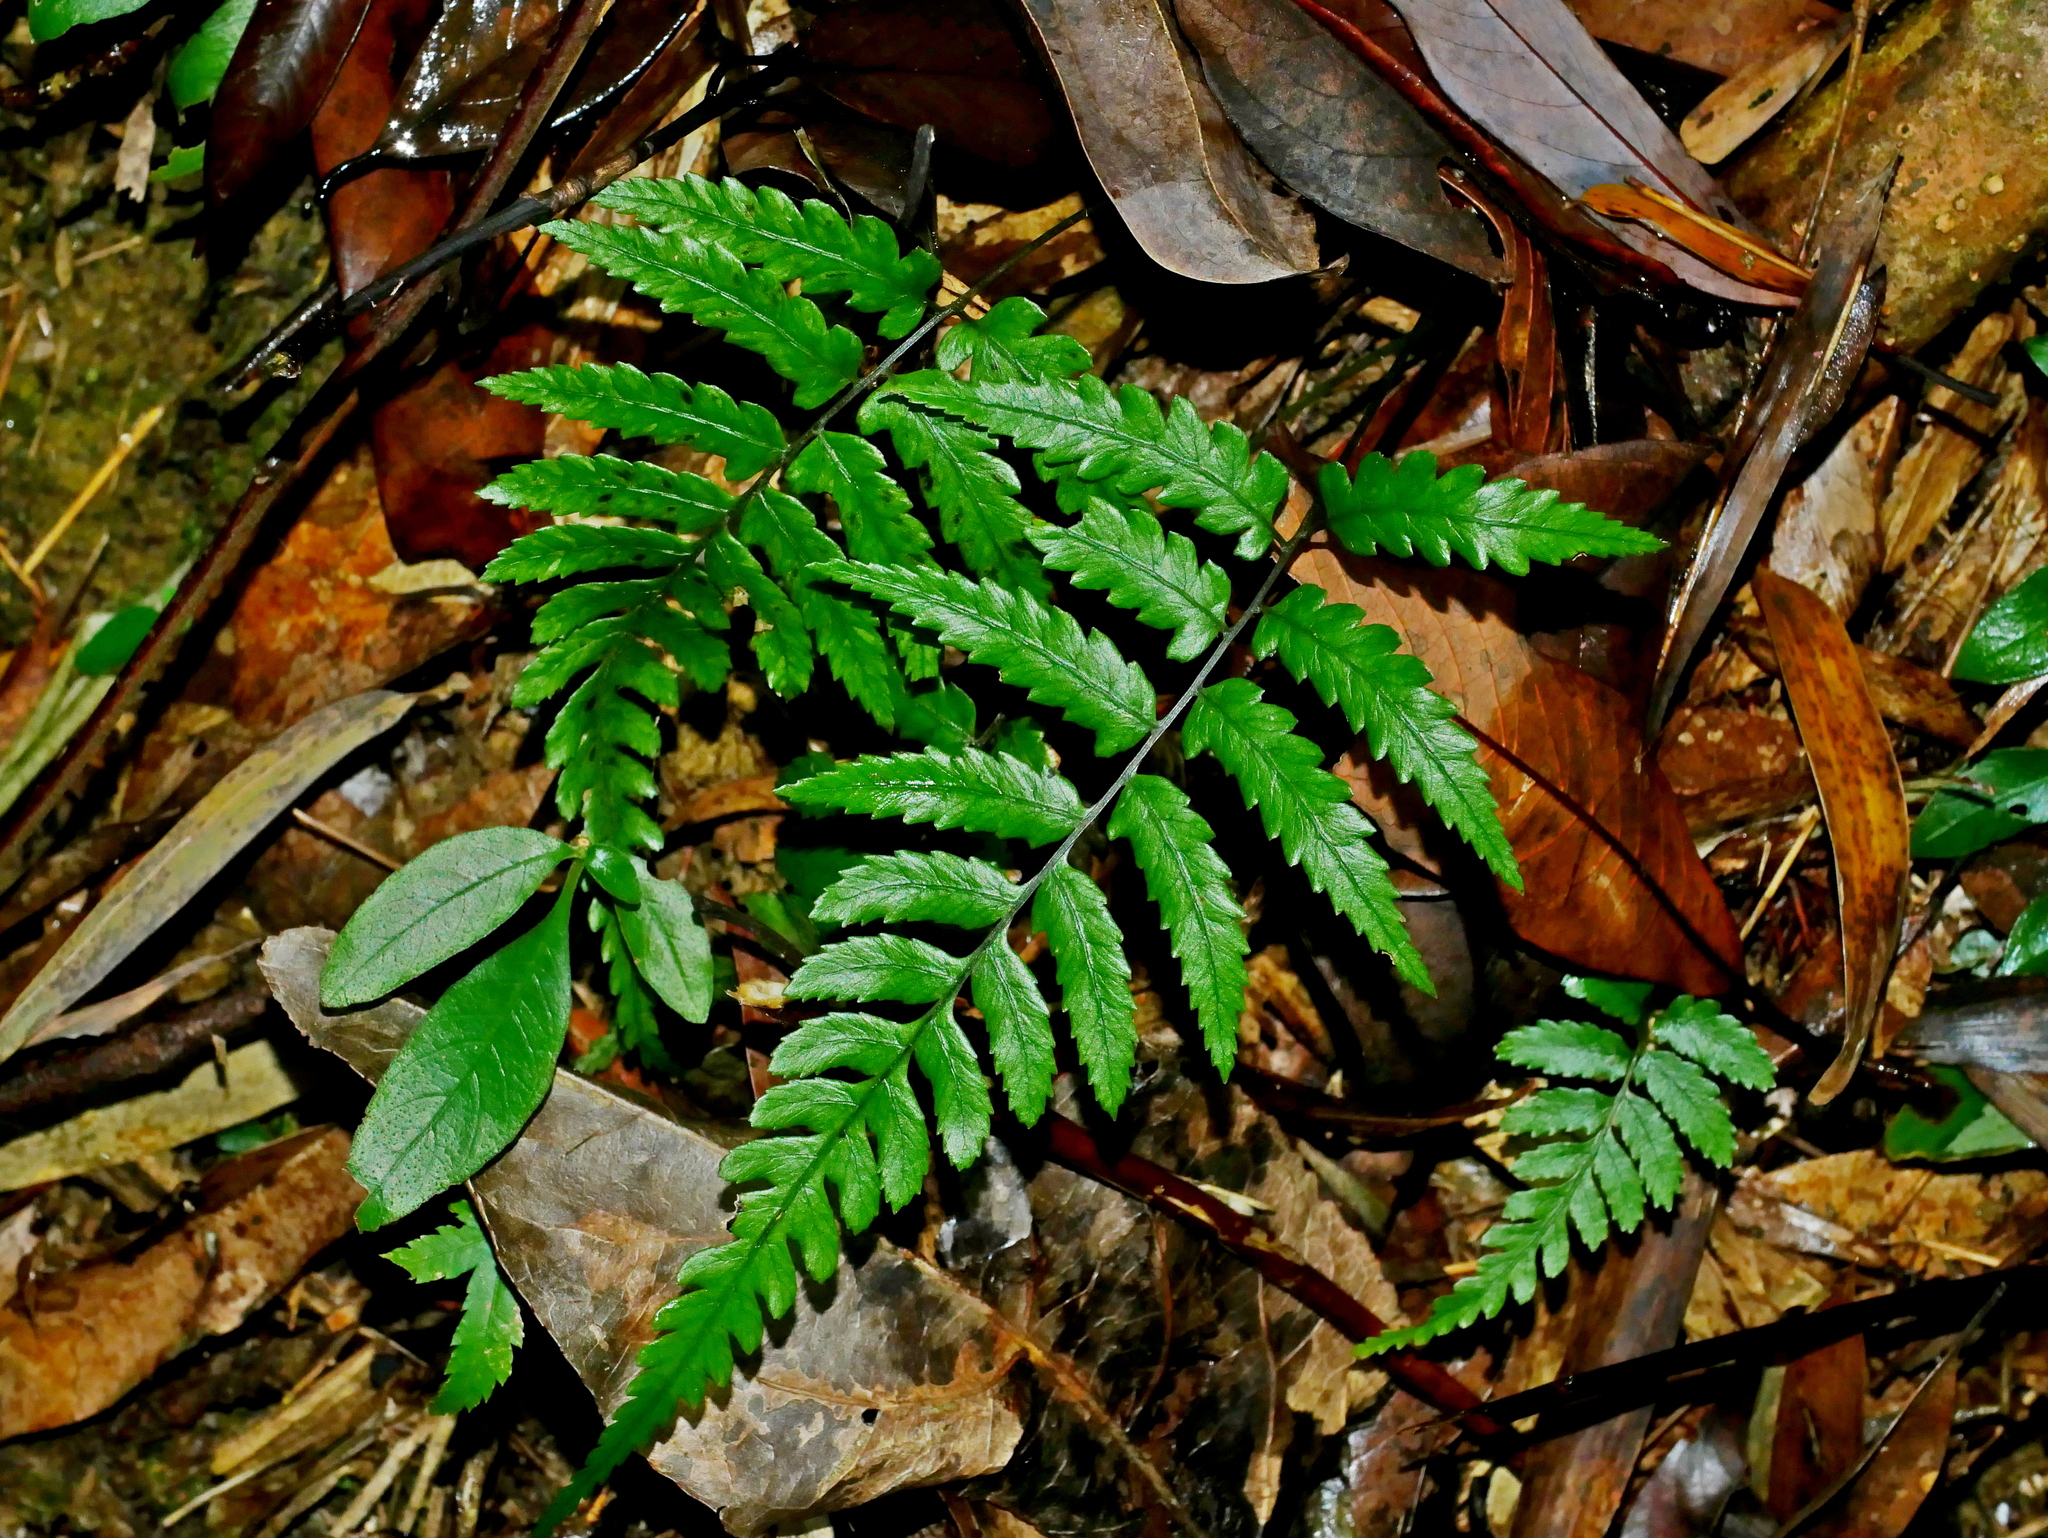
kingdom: Plantae
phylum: Tracheophyta
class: Polypodiopsida
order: Polypodiales
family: Athyriaceae
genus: Diplazium
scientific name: Diplazium fauriei
